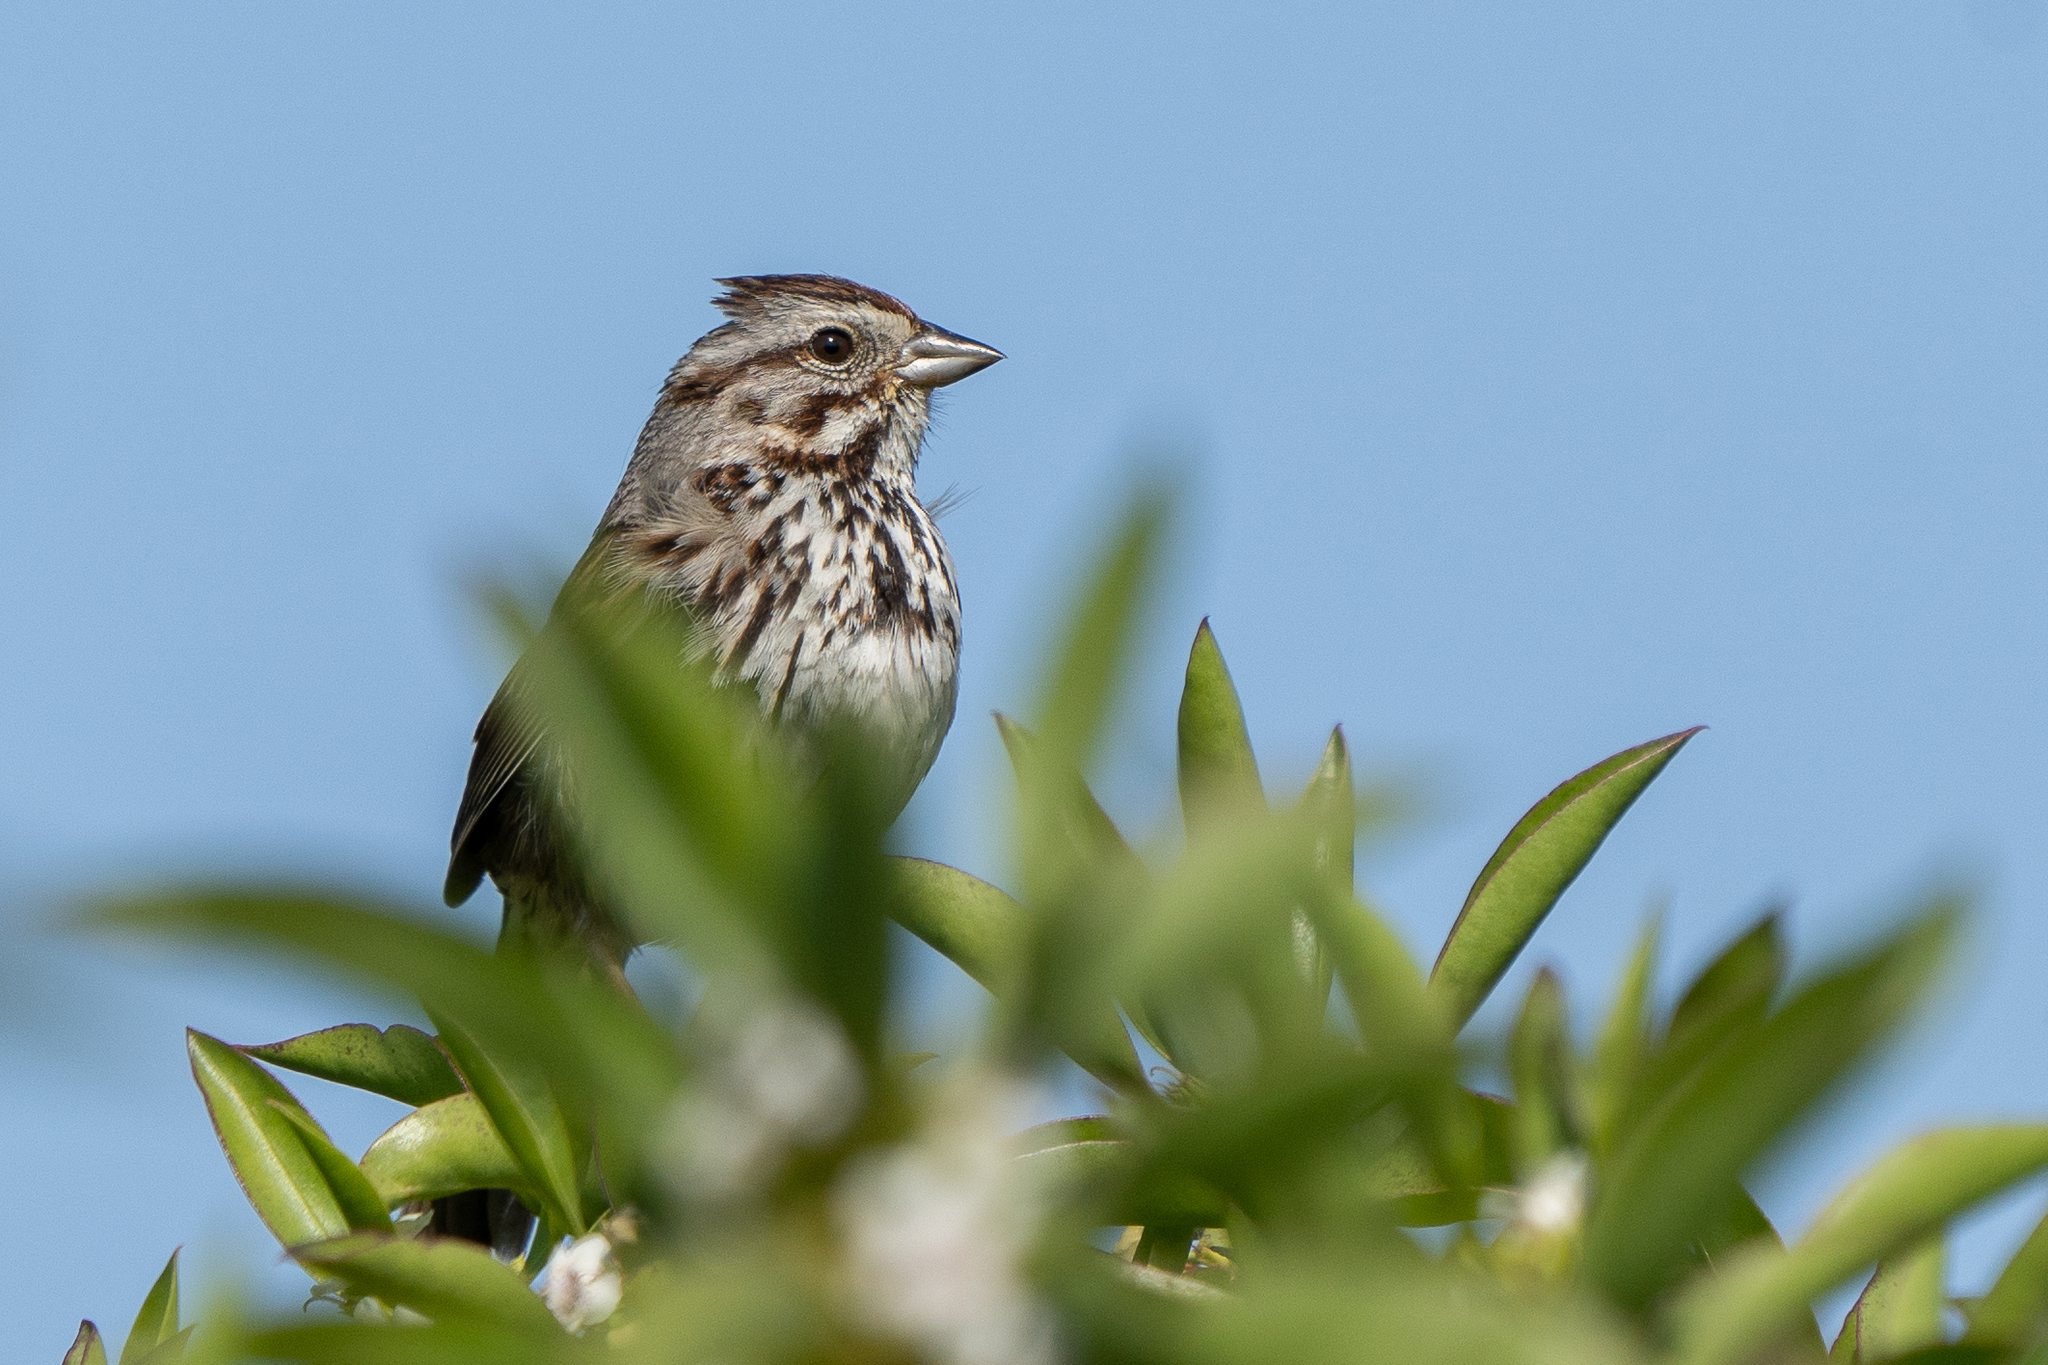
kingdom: Animalia
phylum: Chordata
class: Aves
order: Passeriformes
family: Passerellidae
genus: Melospiza
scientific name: Melospiza melodia
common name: Song sparrow
